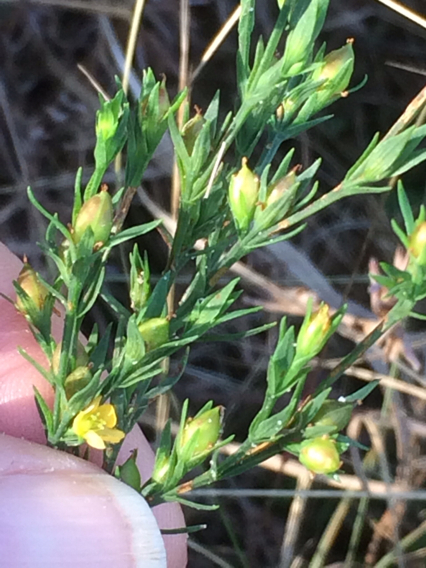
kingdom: Plantae
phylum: Tracheophyta
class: Magnoliopsida
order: Malpighiales
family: Hypericaceae
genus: Hypericum
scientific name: Hypericum drummondii
